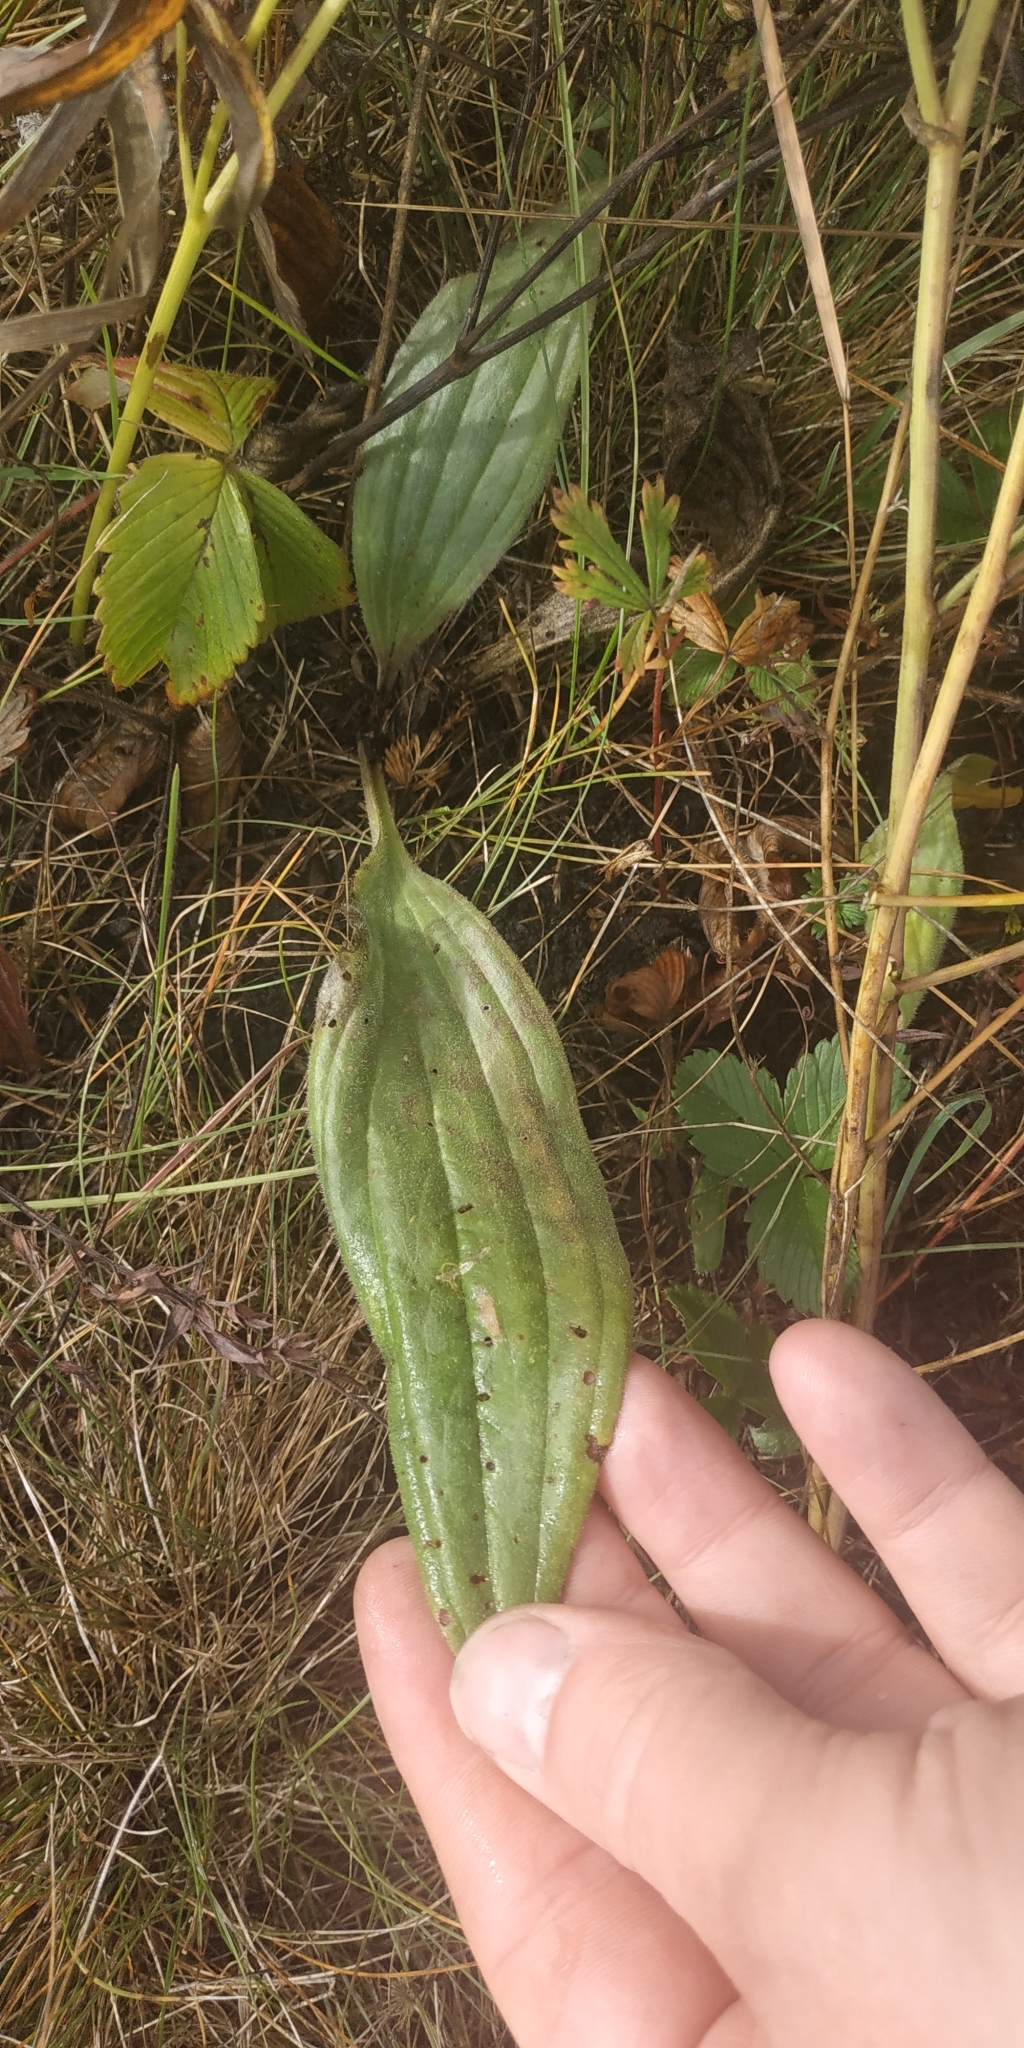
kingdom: Plantae
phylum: Tracheophyta
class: Magnoliopsida
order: Lamiales
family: Plantaginaceae
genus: Plantago
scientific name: Plantago media
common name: Hoary plantain
